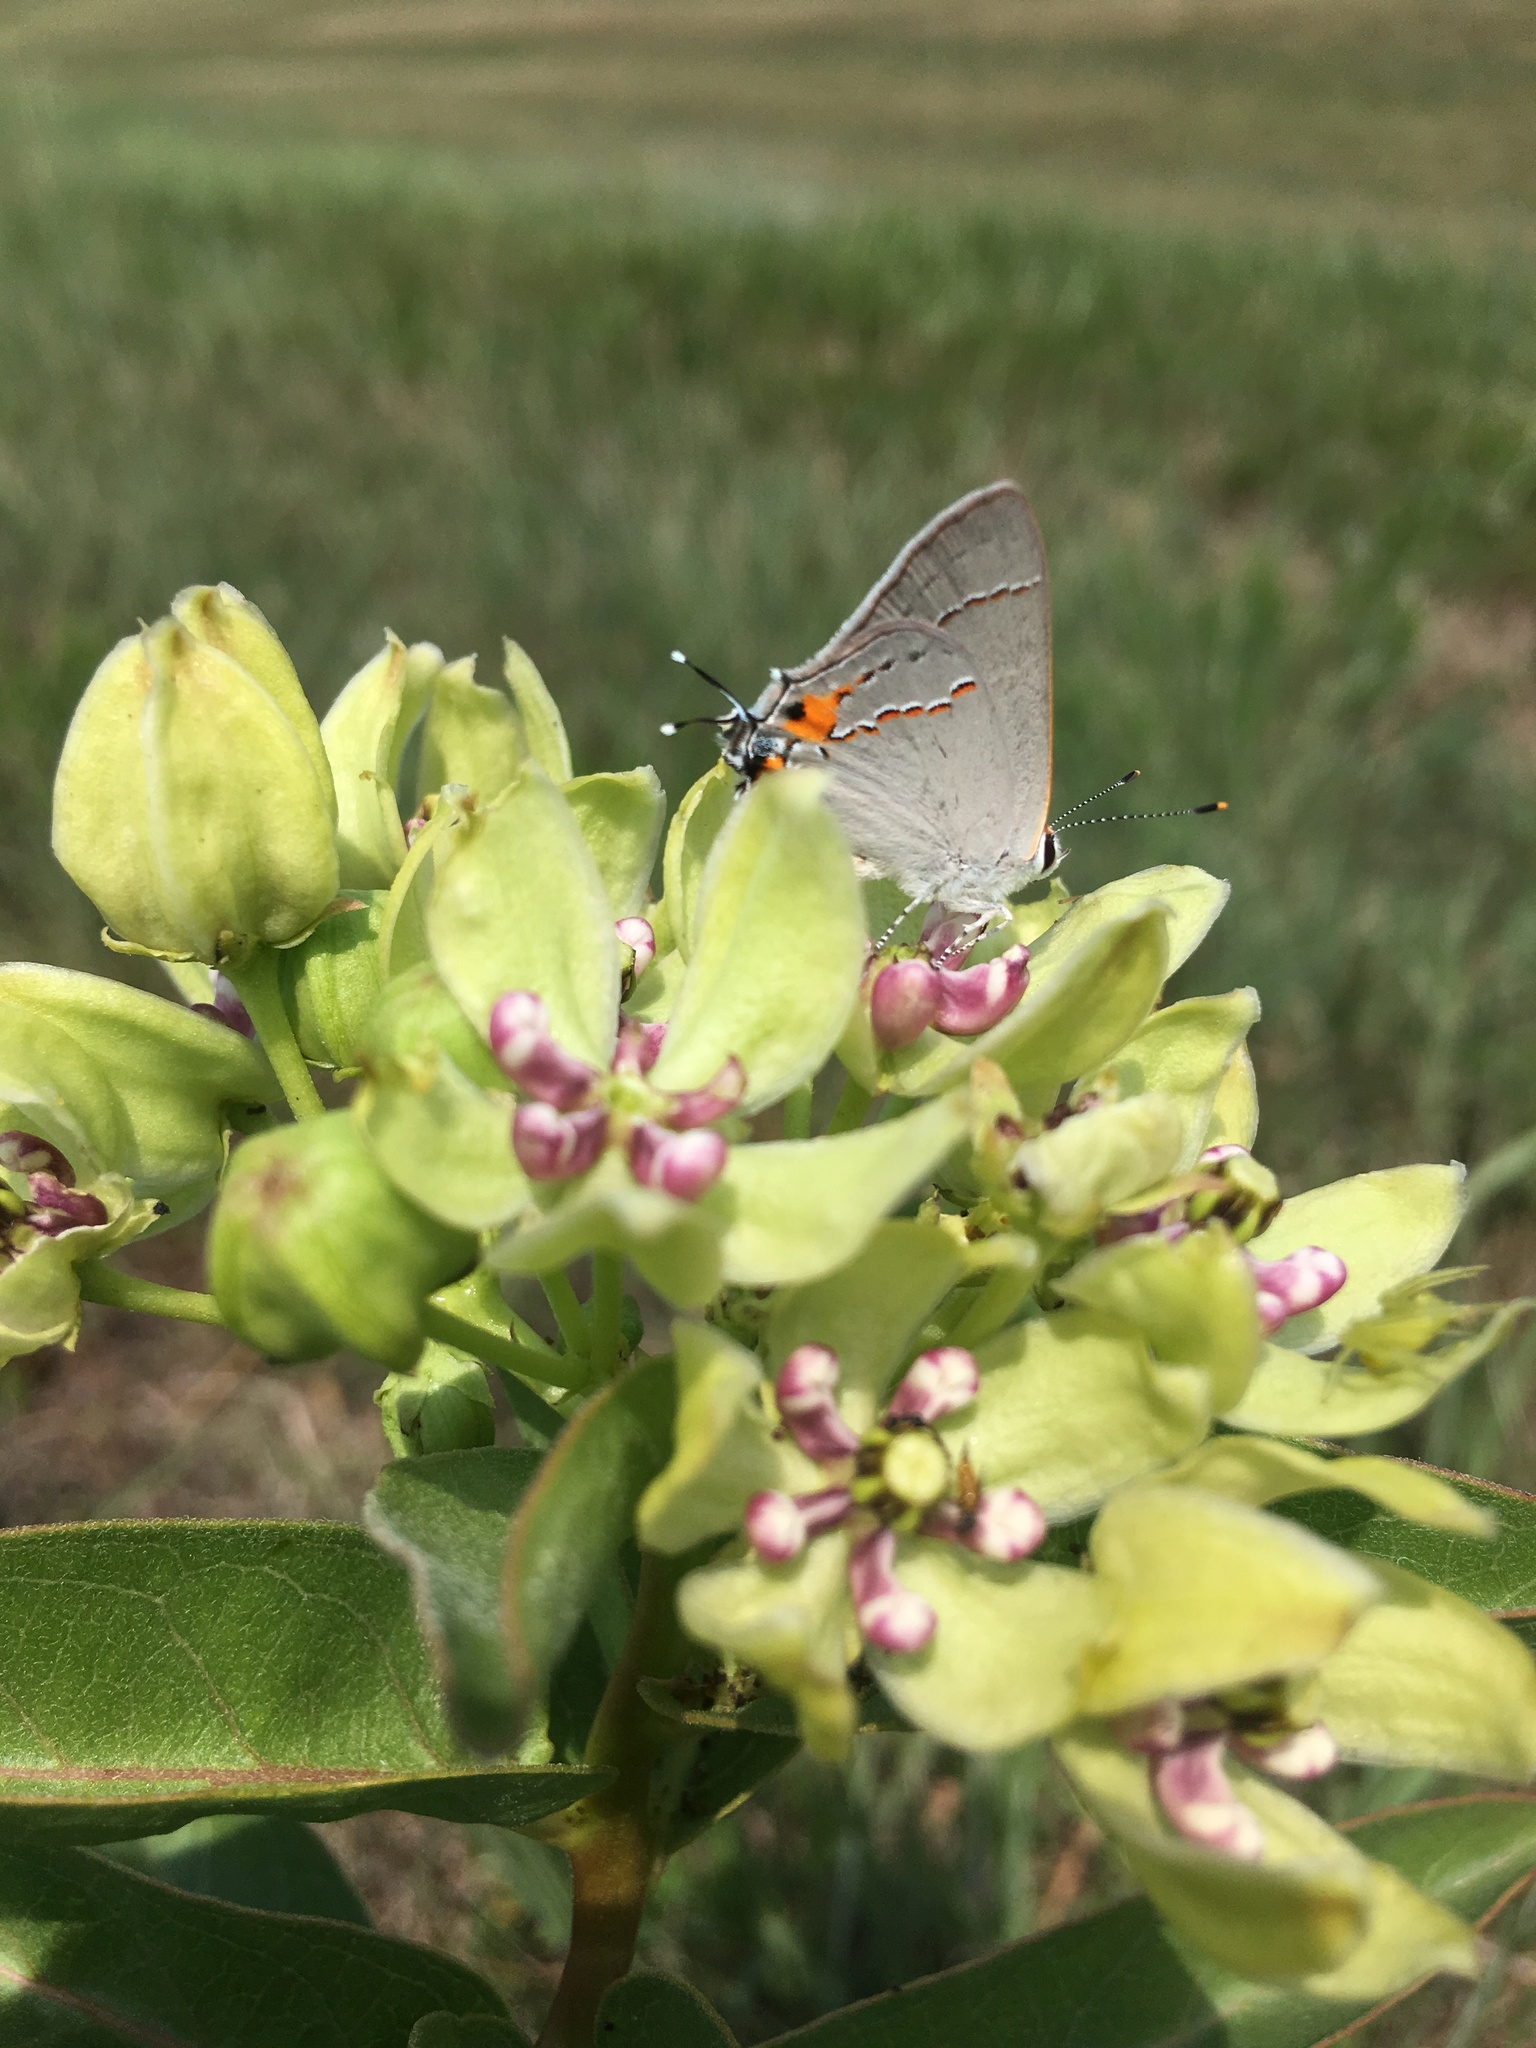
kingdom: Animalia
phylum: Arthropoda
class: Insecta
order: Lepidoptera
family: Lycaenidae
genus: Strymon
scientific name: Strymon melinus
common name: Gray hairstreak
